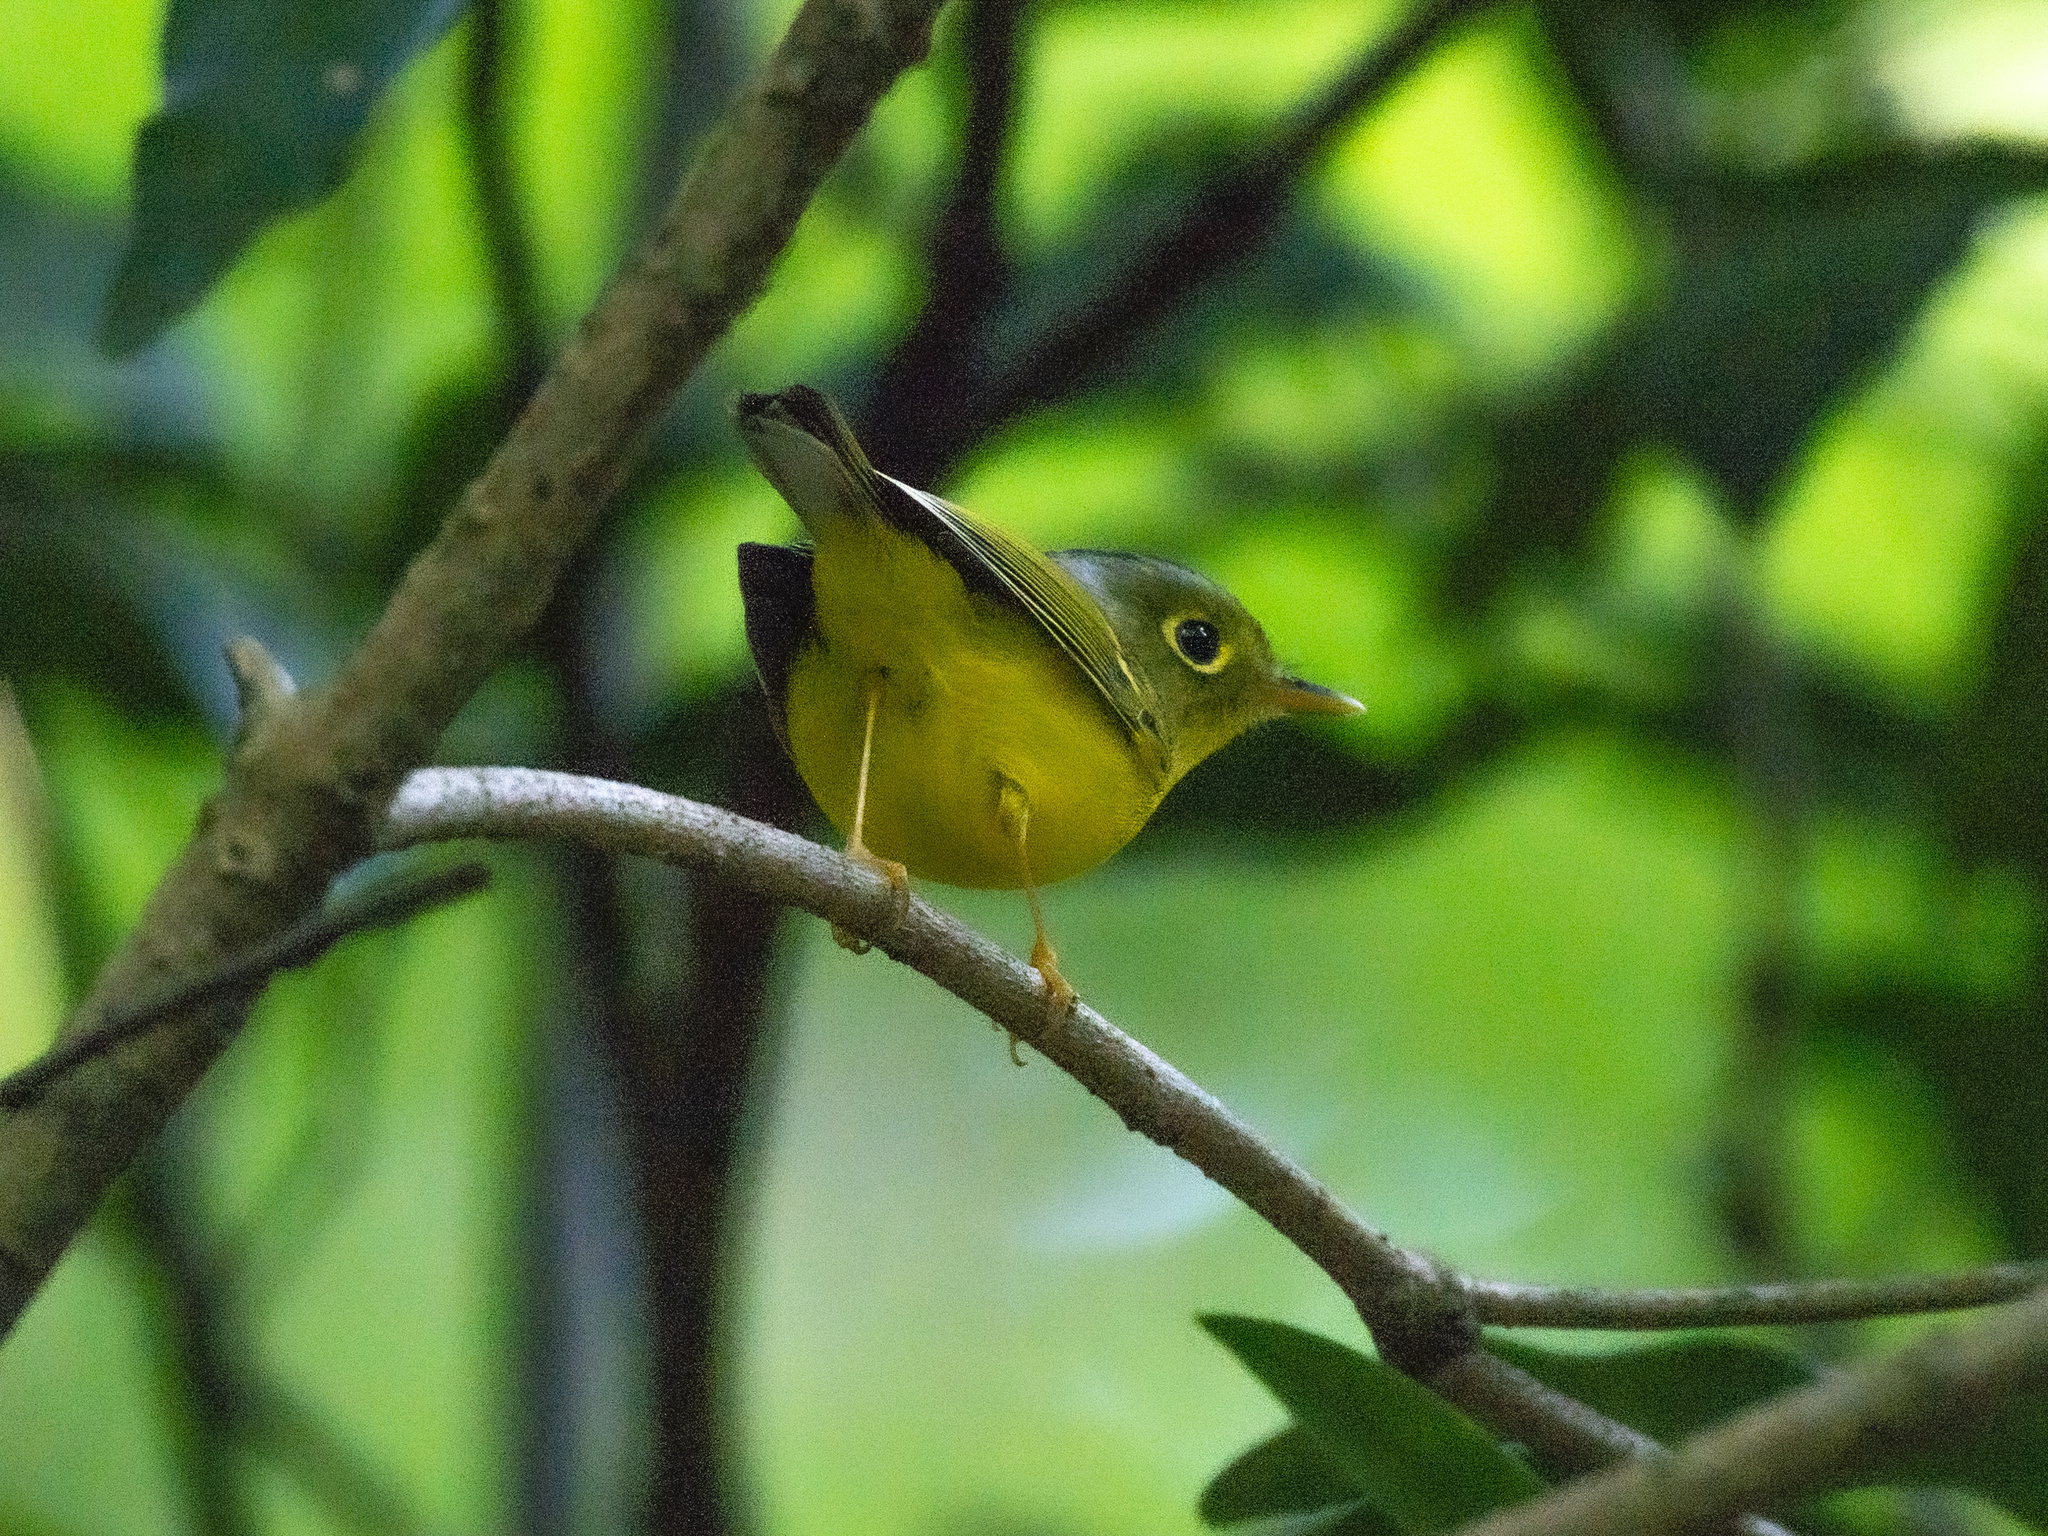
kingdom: Animalia
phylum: Chordata
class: Aves
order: Passeriformes
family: Phylloscopidae
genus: Seicercus
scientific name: Seicercus affinis
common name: White-spectacled warbler
